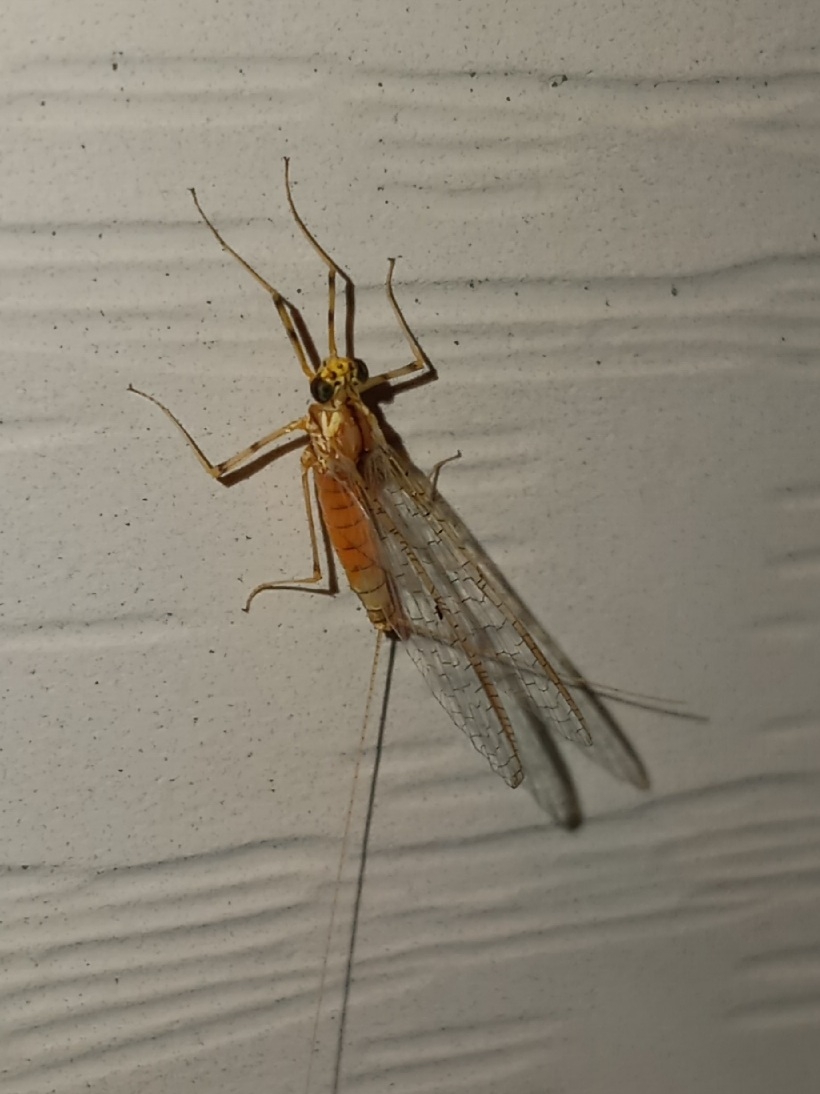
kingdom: Animalia
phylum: Arthropoda
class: Insecta
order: Ephemeroptera
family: Heptageniidae
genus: Stenacron
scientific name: Stenacron interpunctatum
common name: Orange cahill
